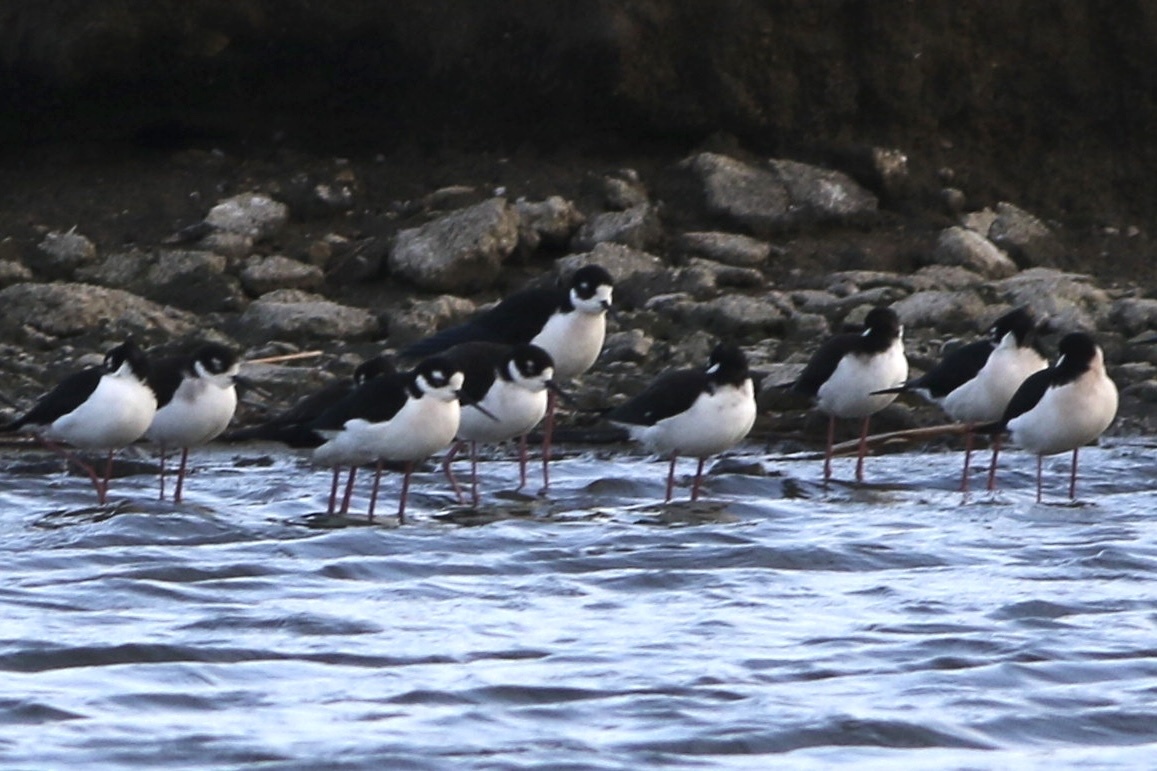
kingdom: Animalia
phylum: Chordata
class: Aves
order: Charadriiformes
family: Recurvirostridae
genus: Himantopus
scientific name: Himantopus mexicanus
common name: Black-necked stilt
